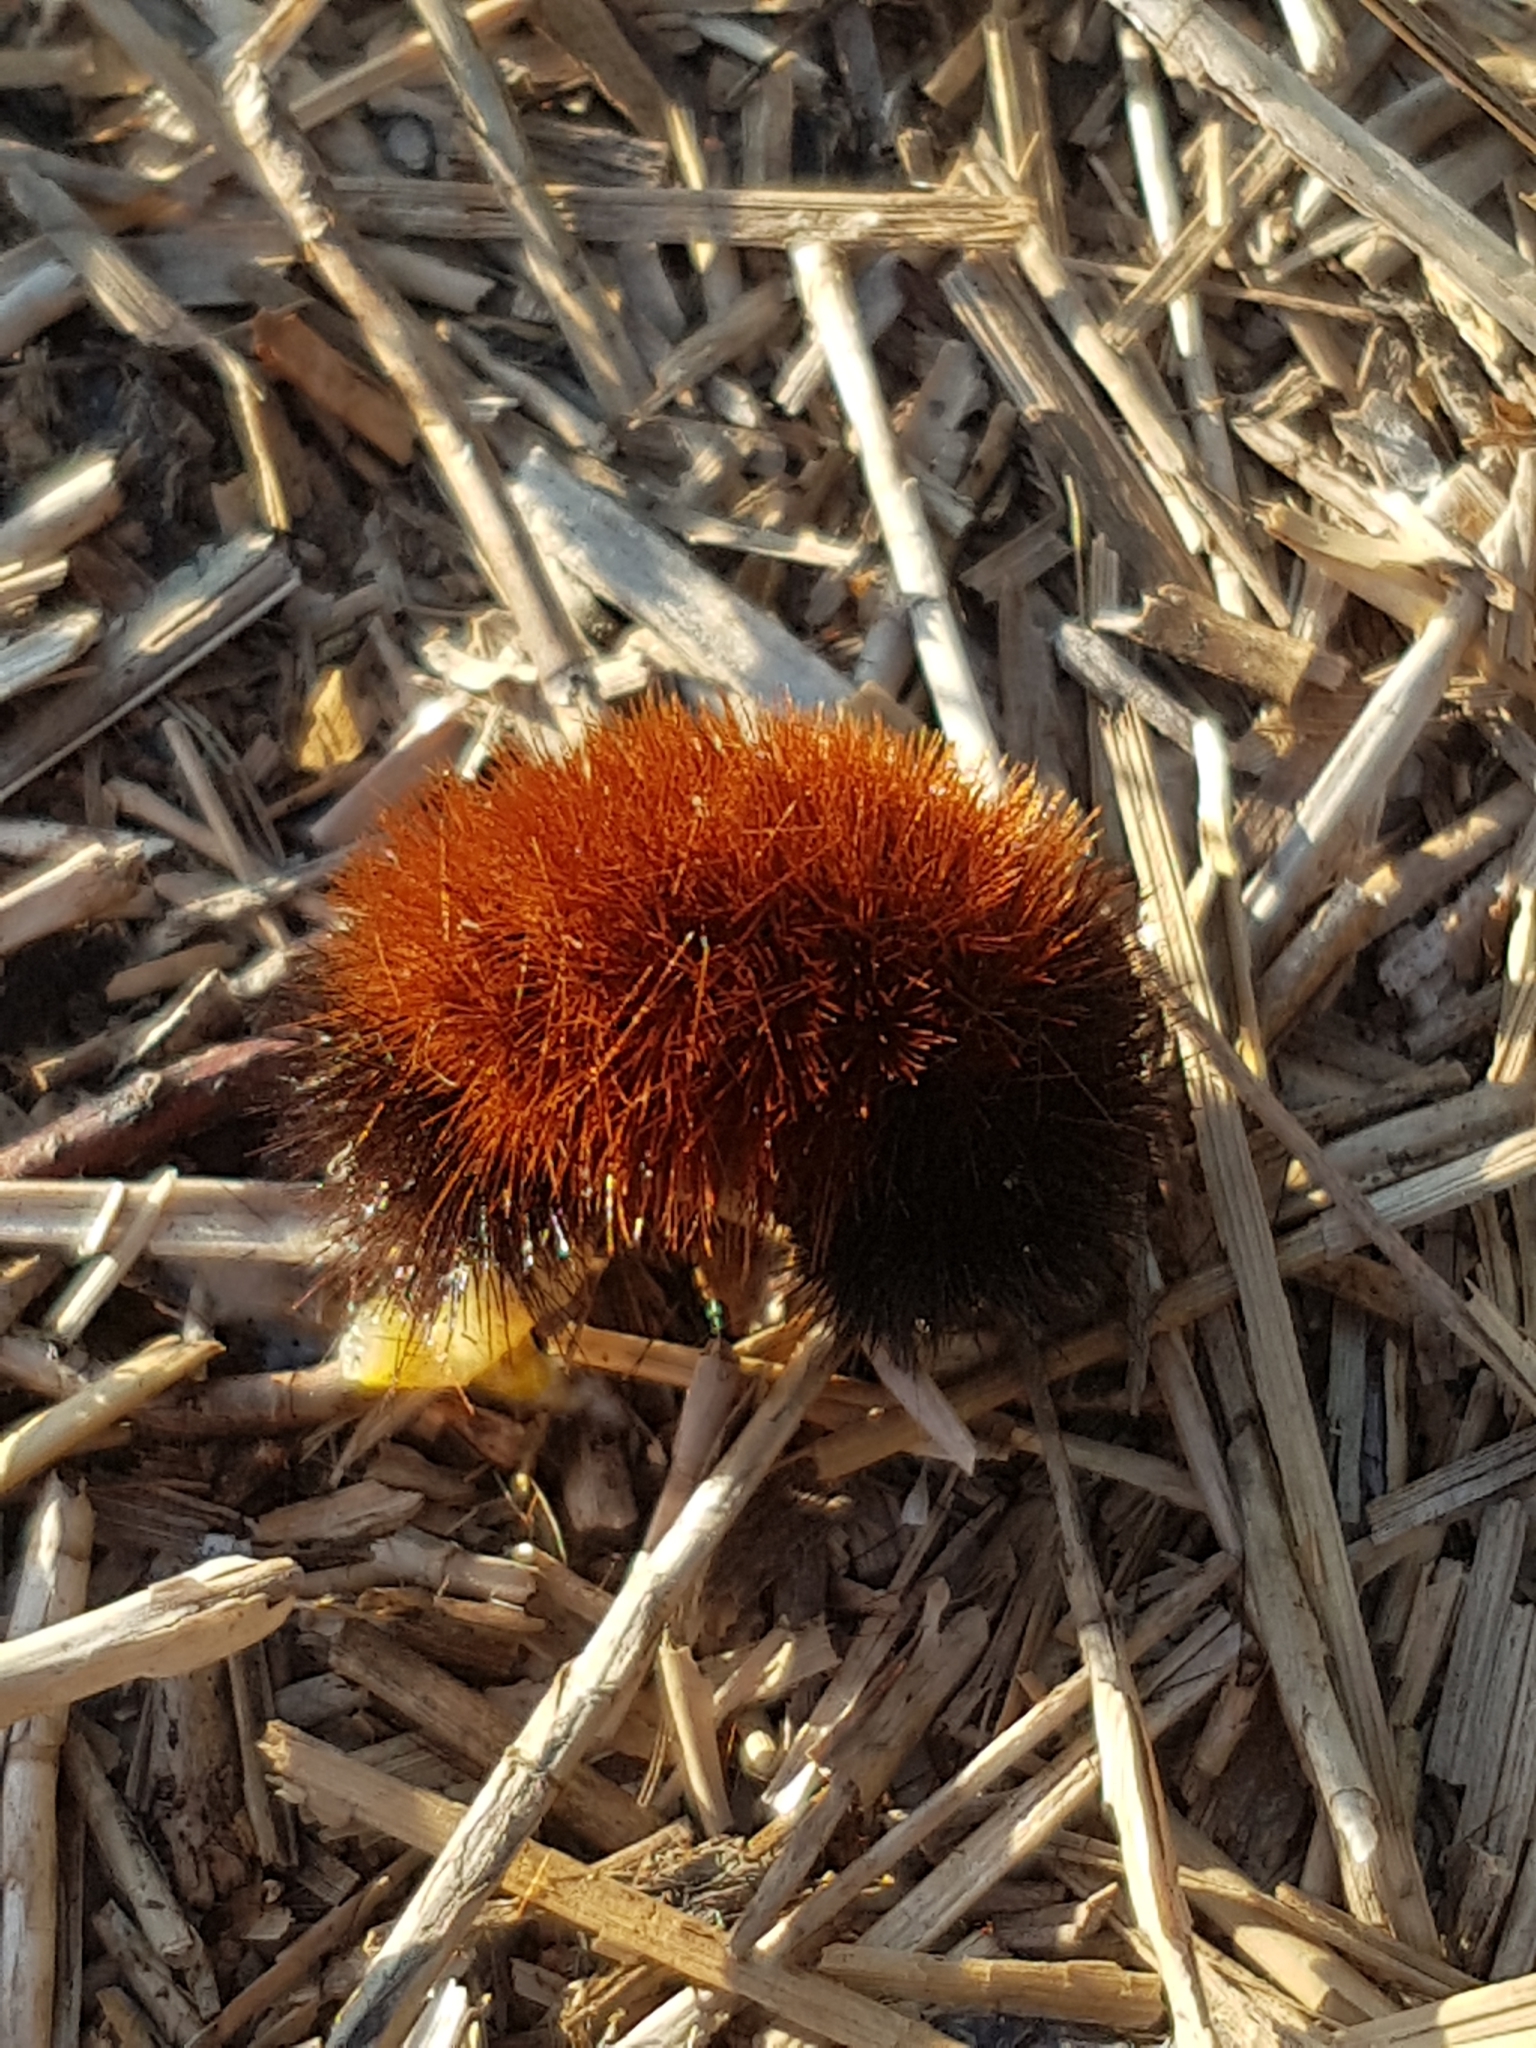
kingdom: Animalia
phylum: Arthropoda
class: Insecta
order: Lepidoptera
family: Erebidae
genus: Pyrrharctia
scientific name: Pyrrharctia isabella
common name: Isabella tiger moth
